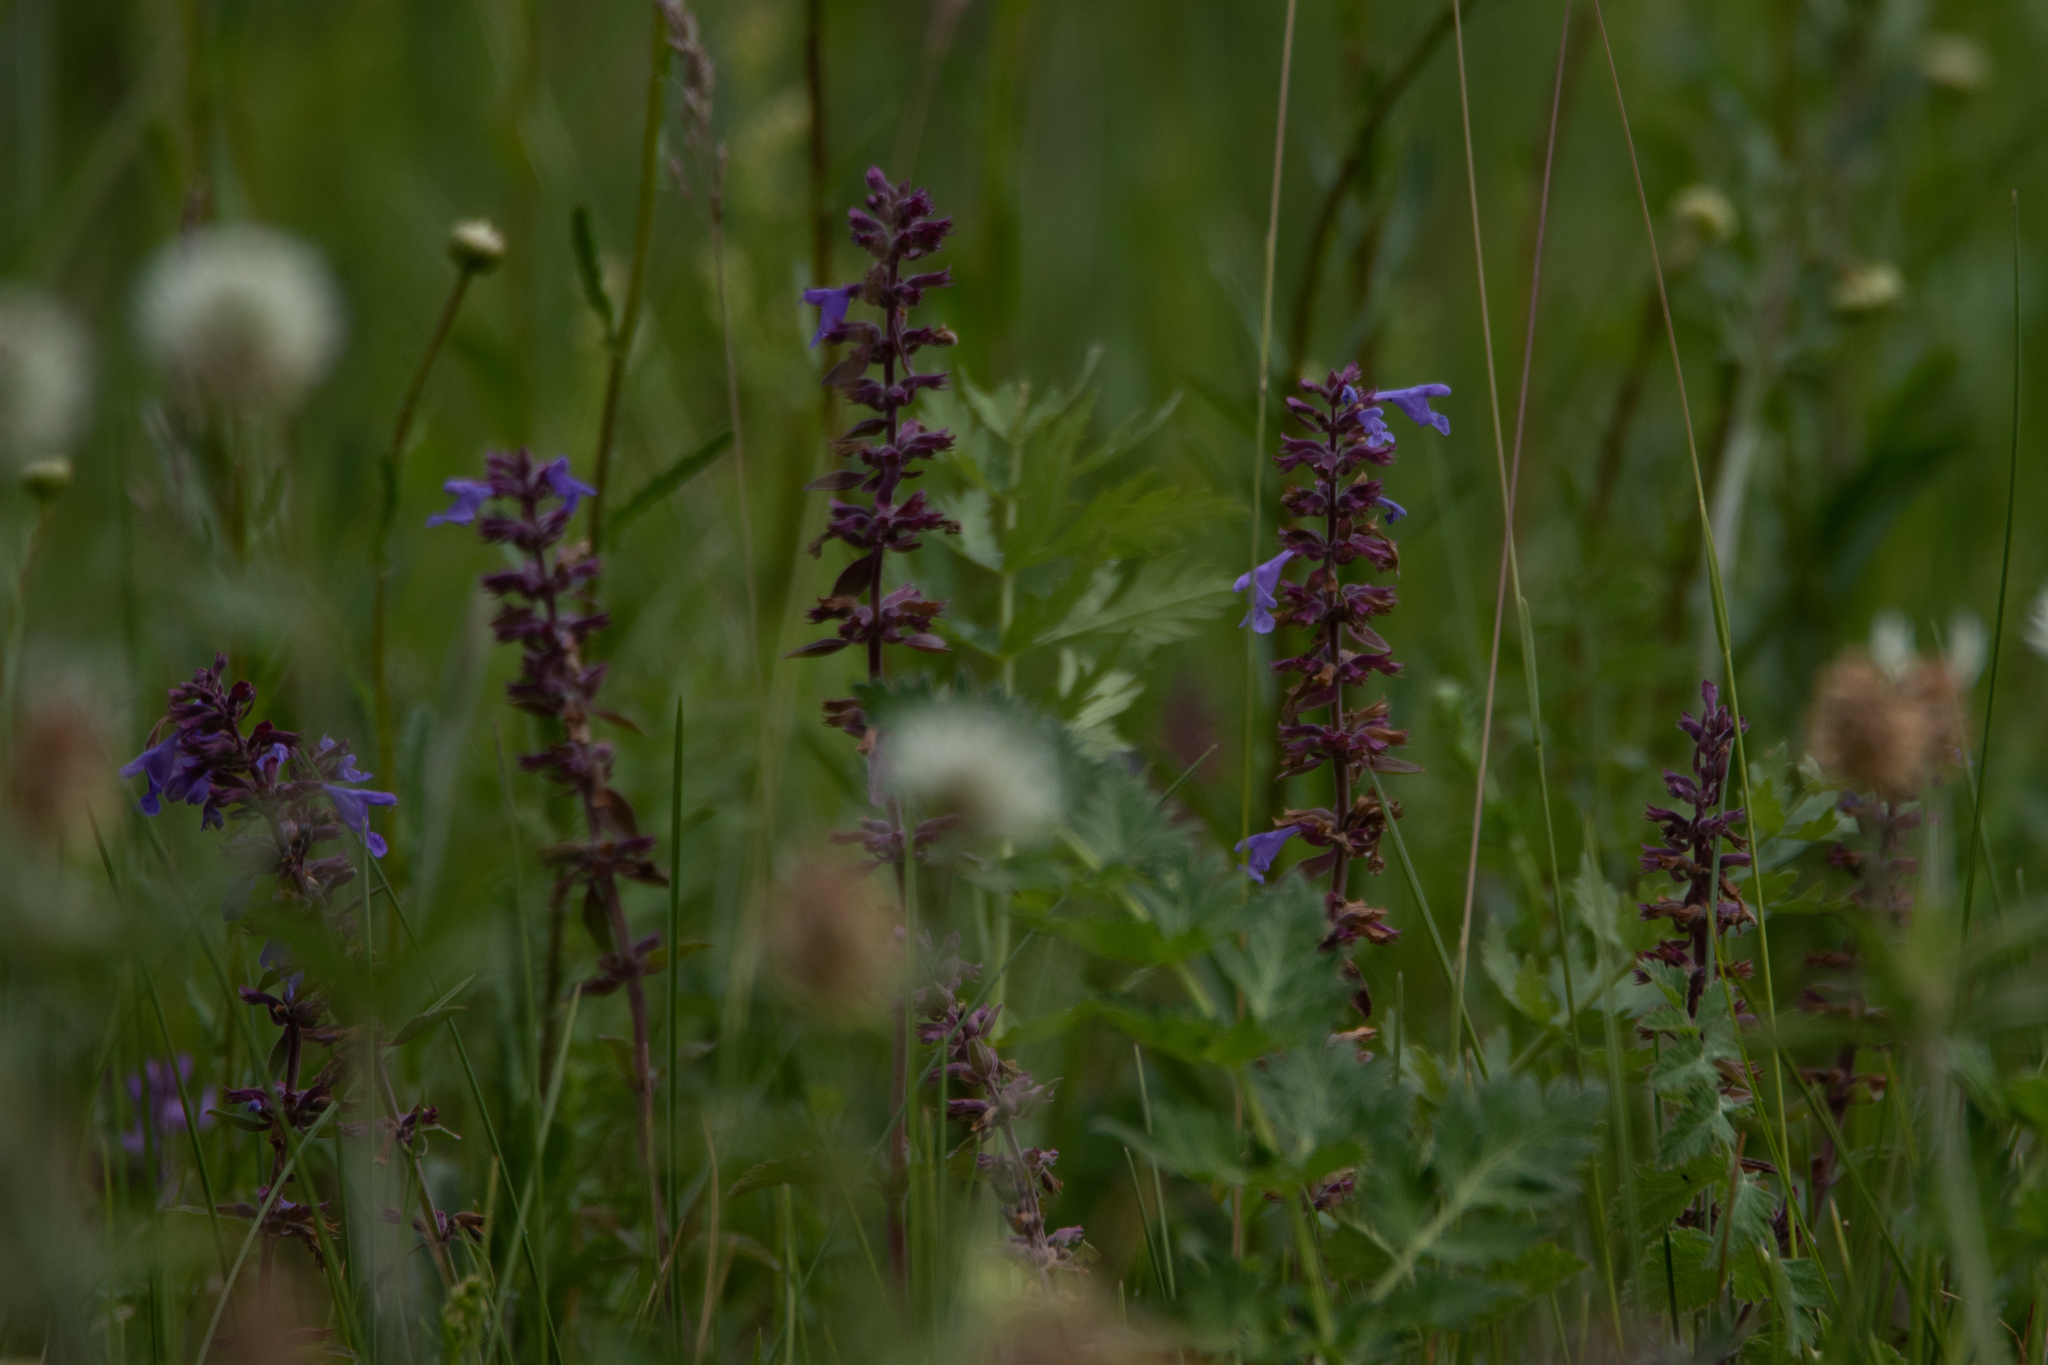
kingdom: Plantae
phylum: Tracheophyta
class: Magnoliopsida
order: Lamiales
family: Lamiaceae
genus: Dracocephalum
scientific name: Dracocephalum nutans
